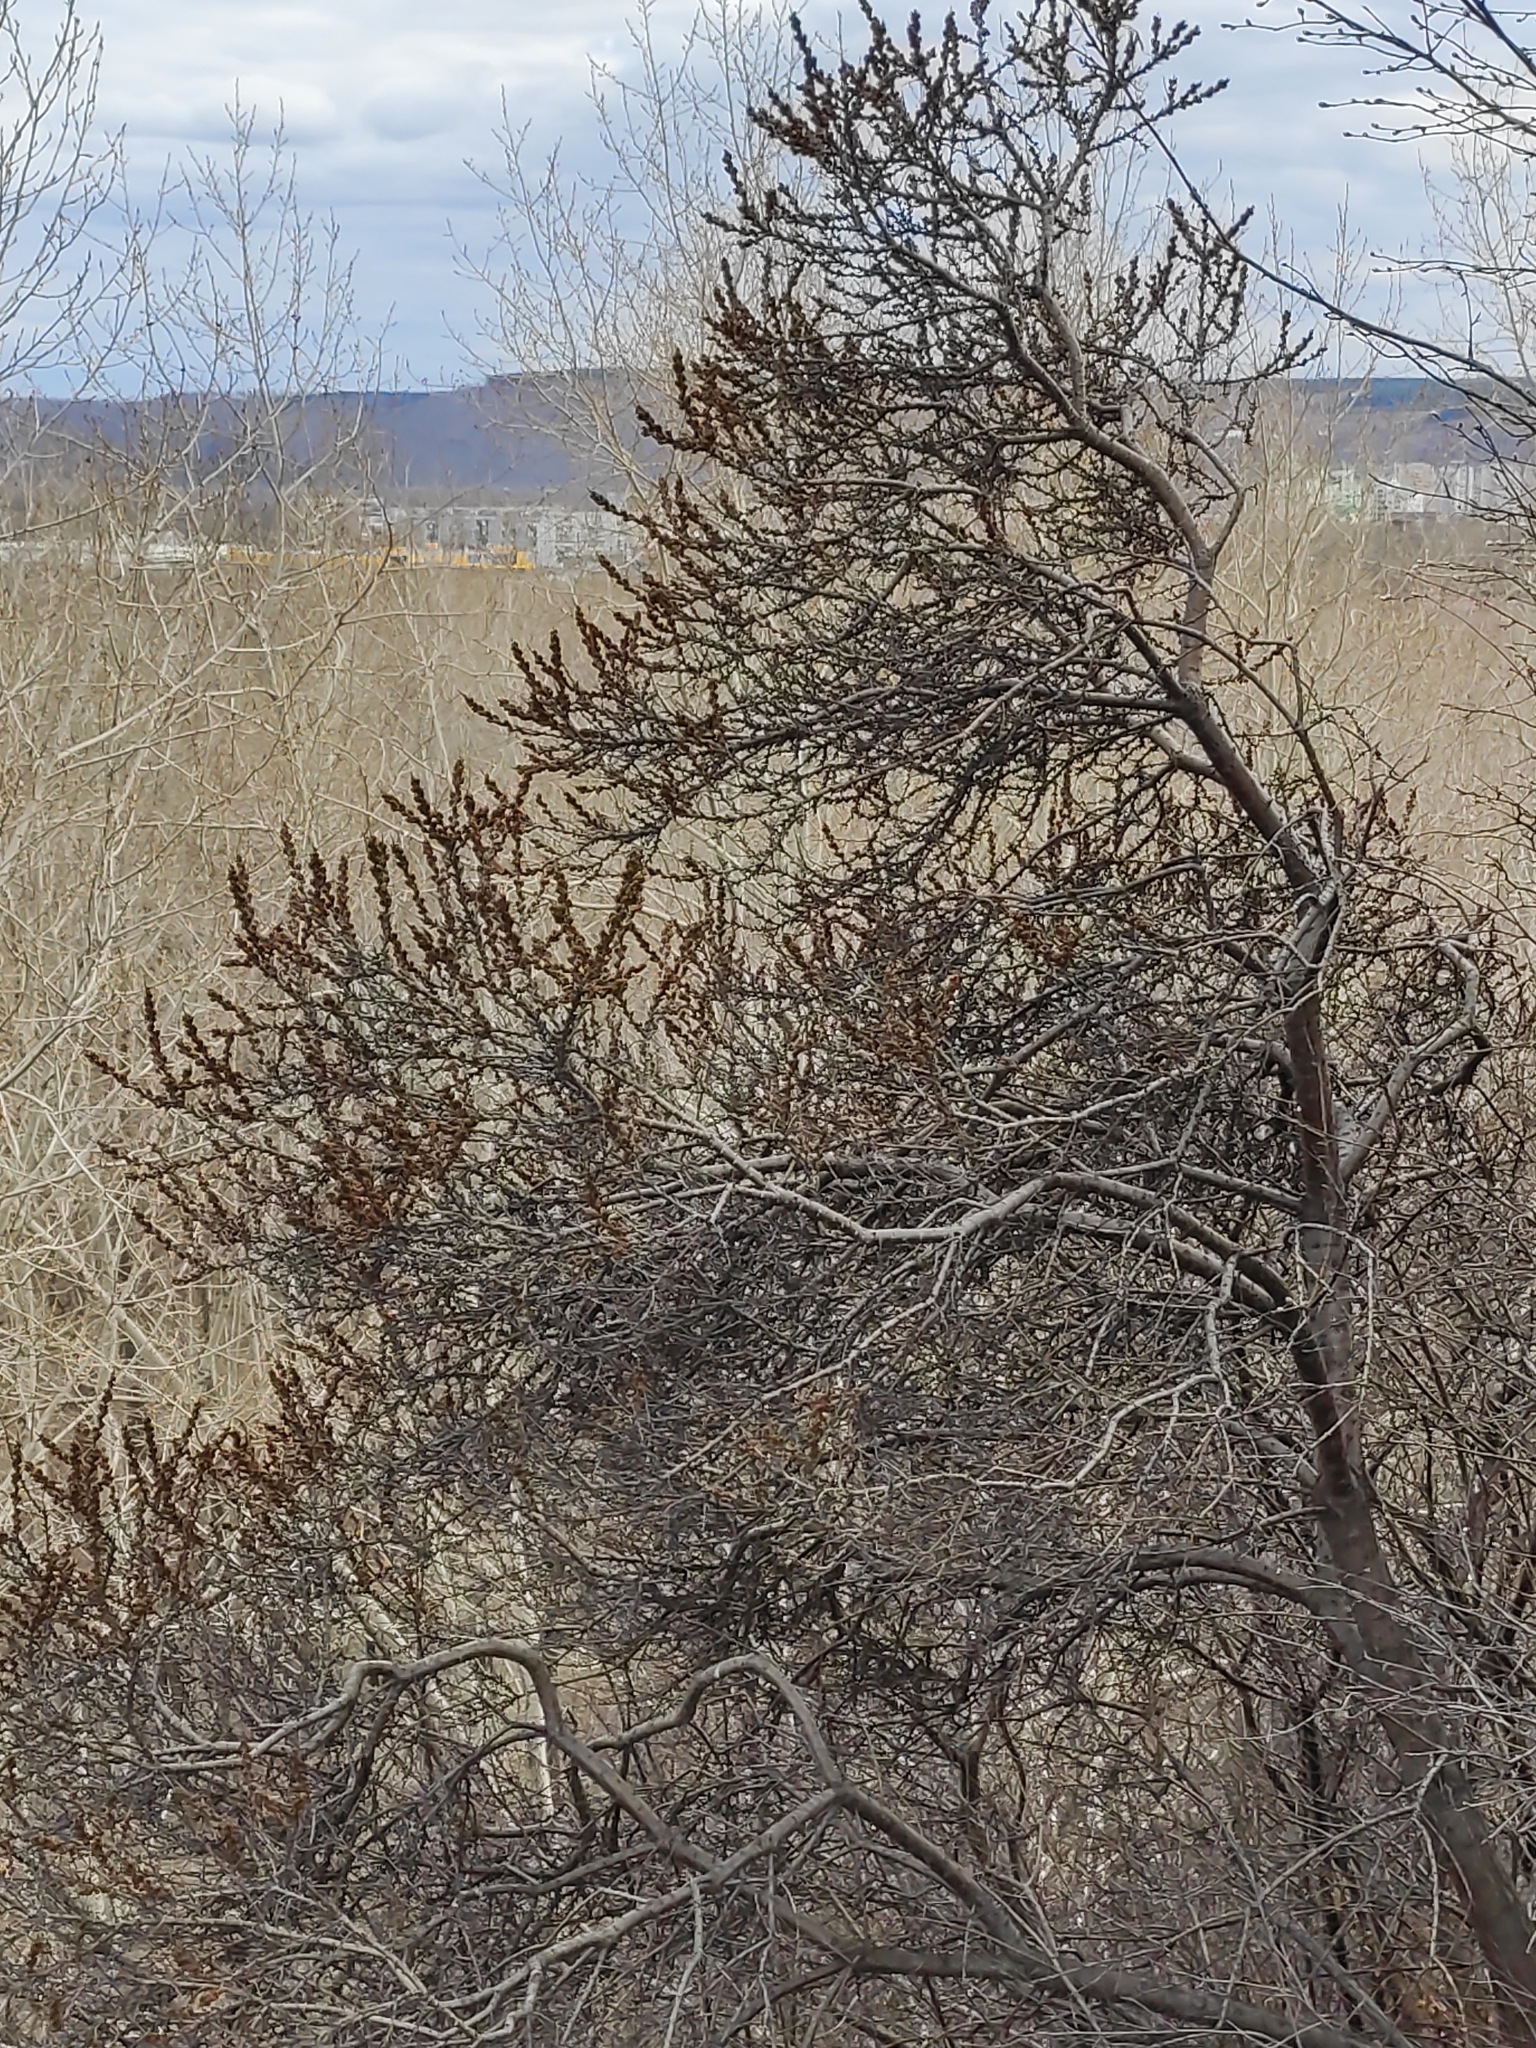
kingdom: Plantae
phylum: Tracheophyta
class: Magnoliopsida
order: Rosales
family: Elaeagnaceae
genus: Hippophae
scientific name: Hippophae rhamnoides
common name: Sea-buckthorn
